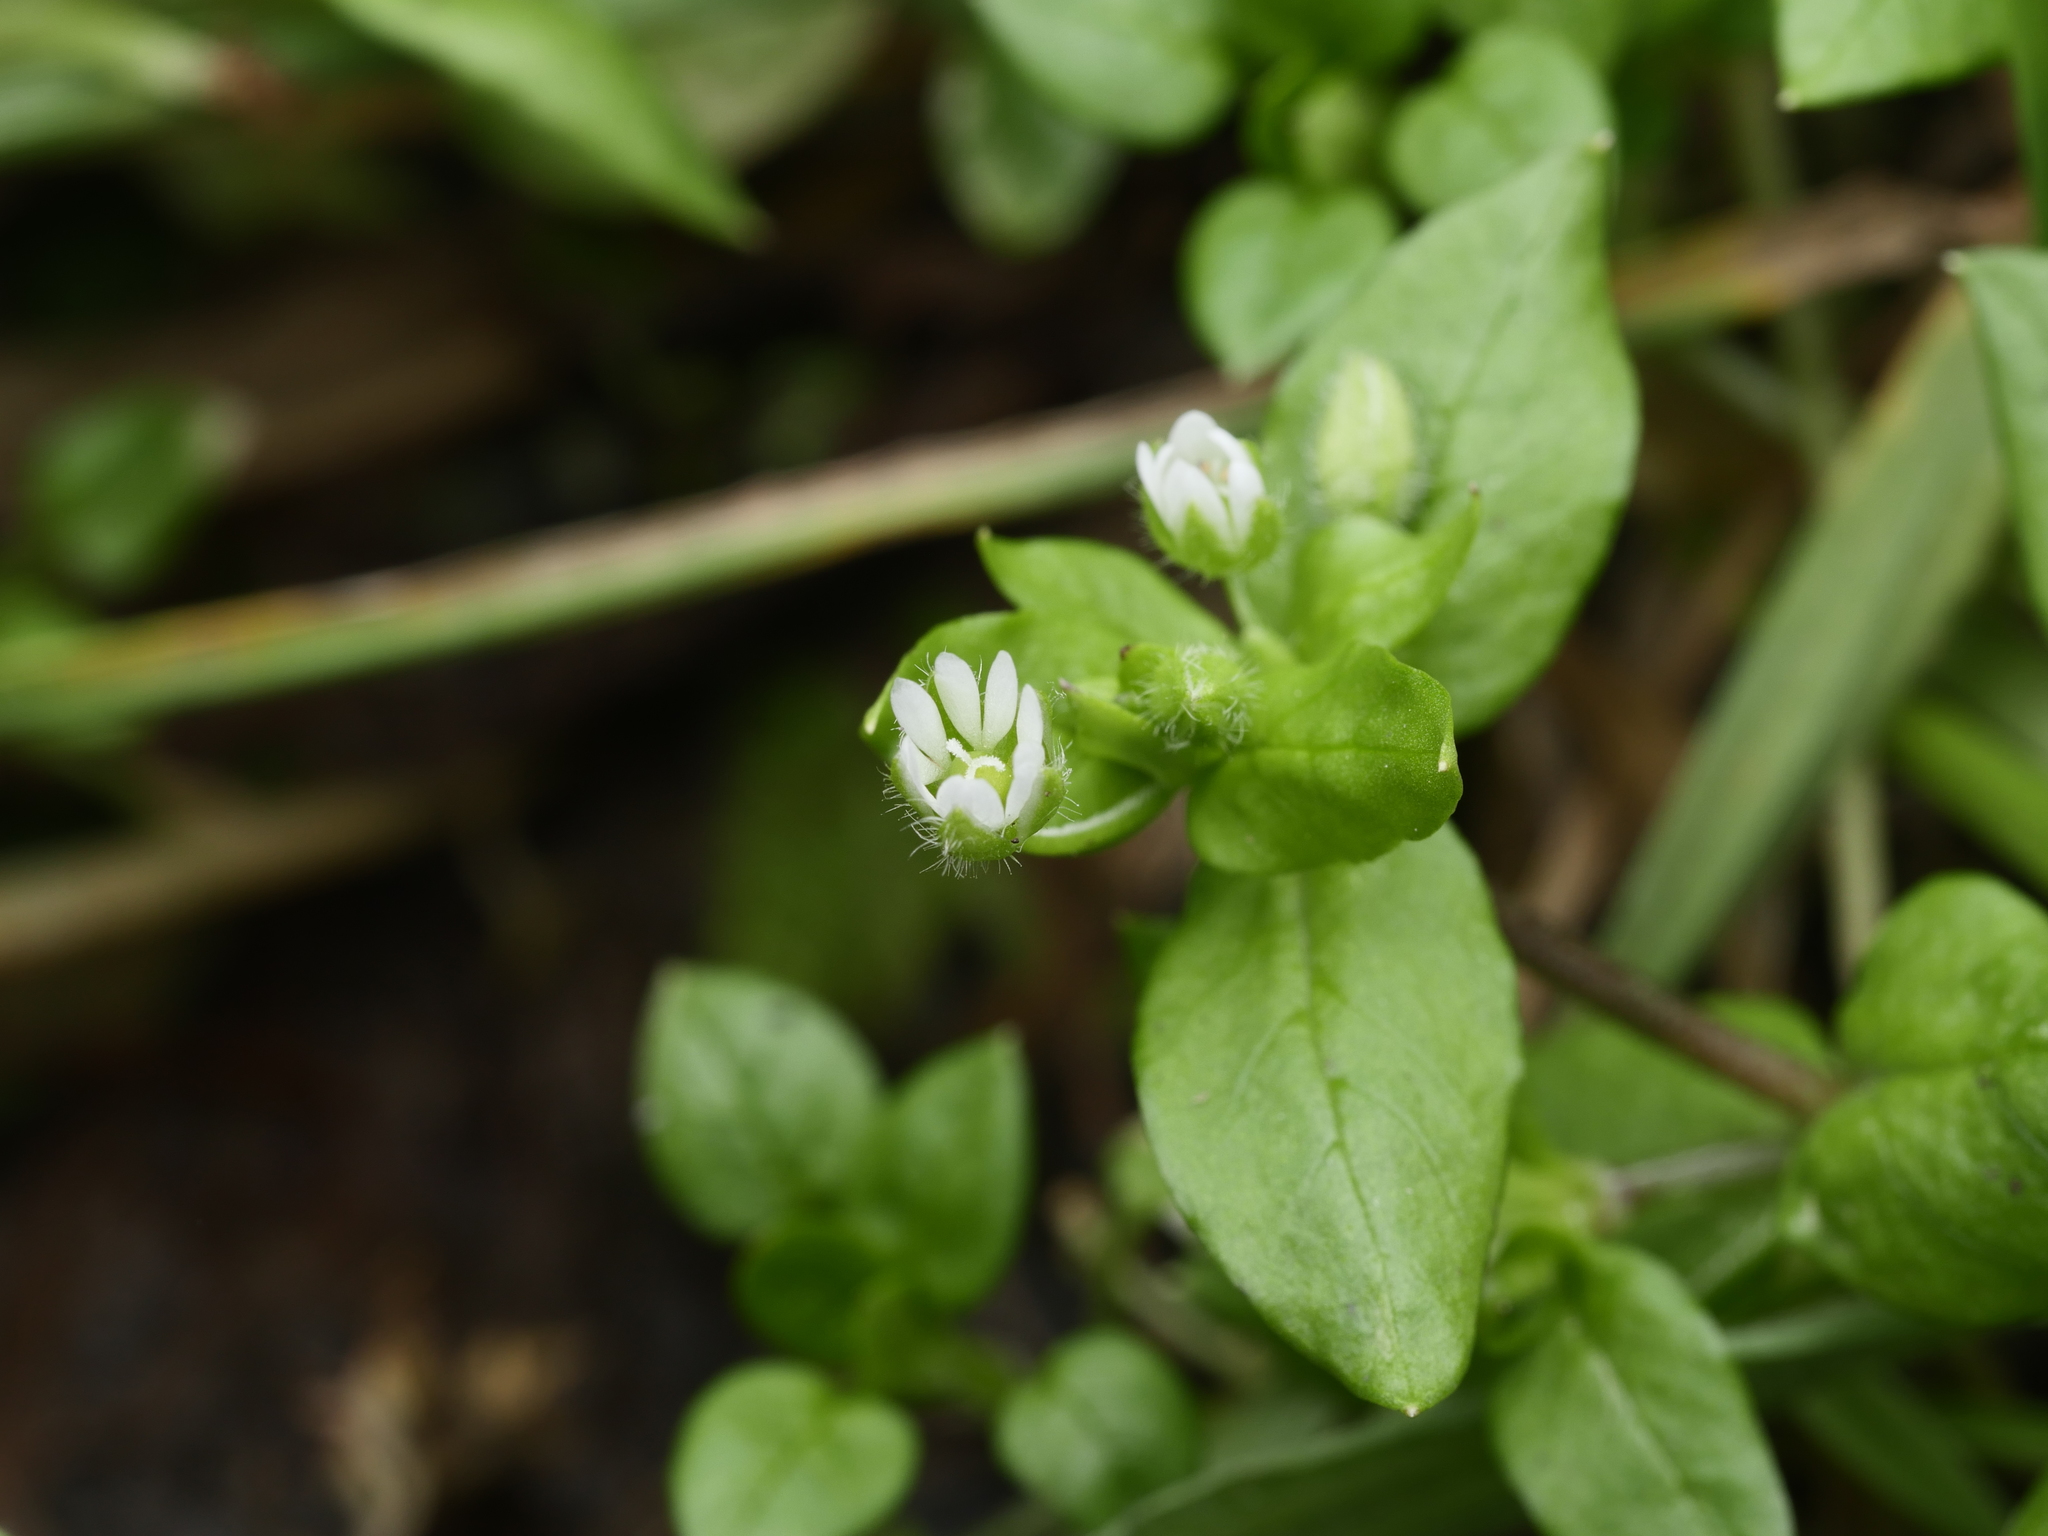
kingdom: Plantae
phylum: Tracheophyta
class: Magnoliopsida
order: Caryophyllales
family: Caryophyllaceae
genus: Stellaria
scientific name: Stellaria media
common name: Common chickweed
